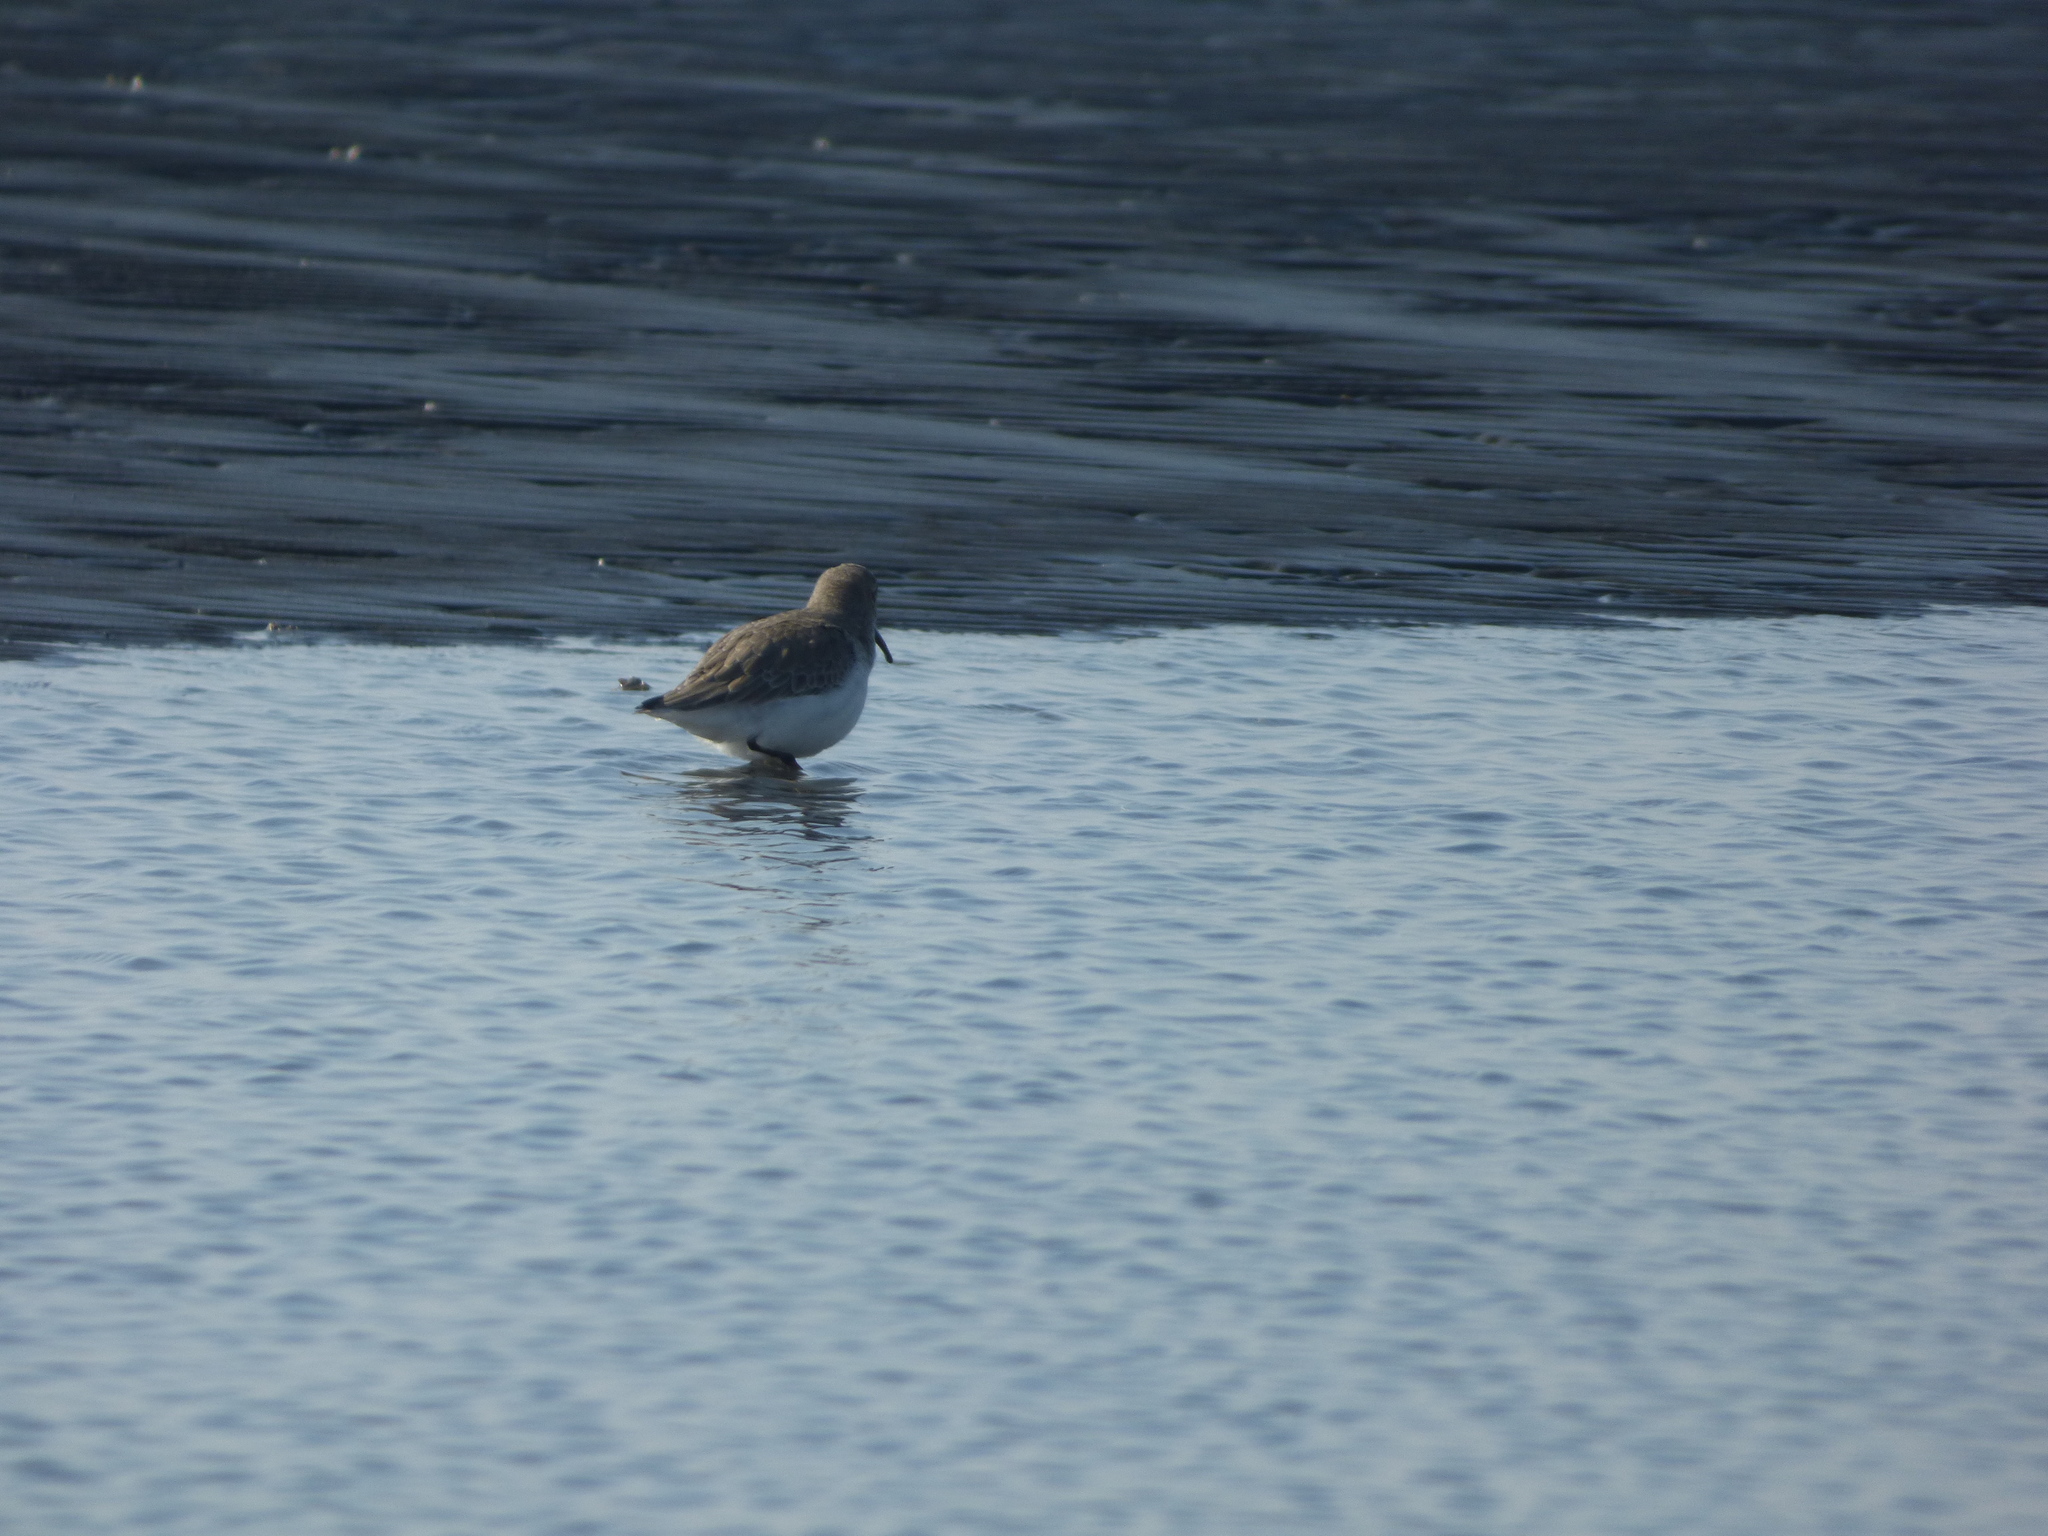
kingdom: Animalia
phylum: Chordata
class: Aves
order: Charadriiformes
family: Scolopacidae
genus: Calidris
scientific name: Calidris alpina
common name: Dunlin
